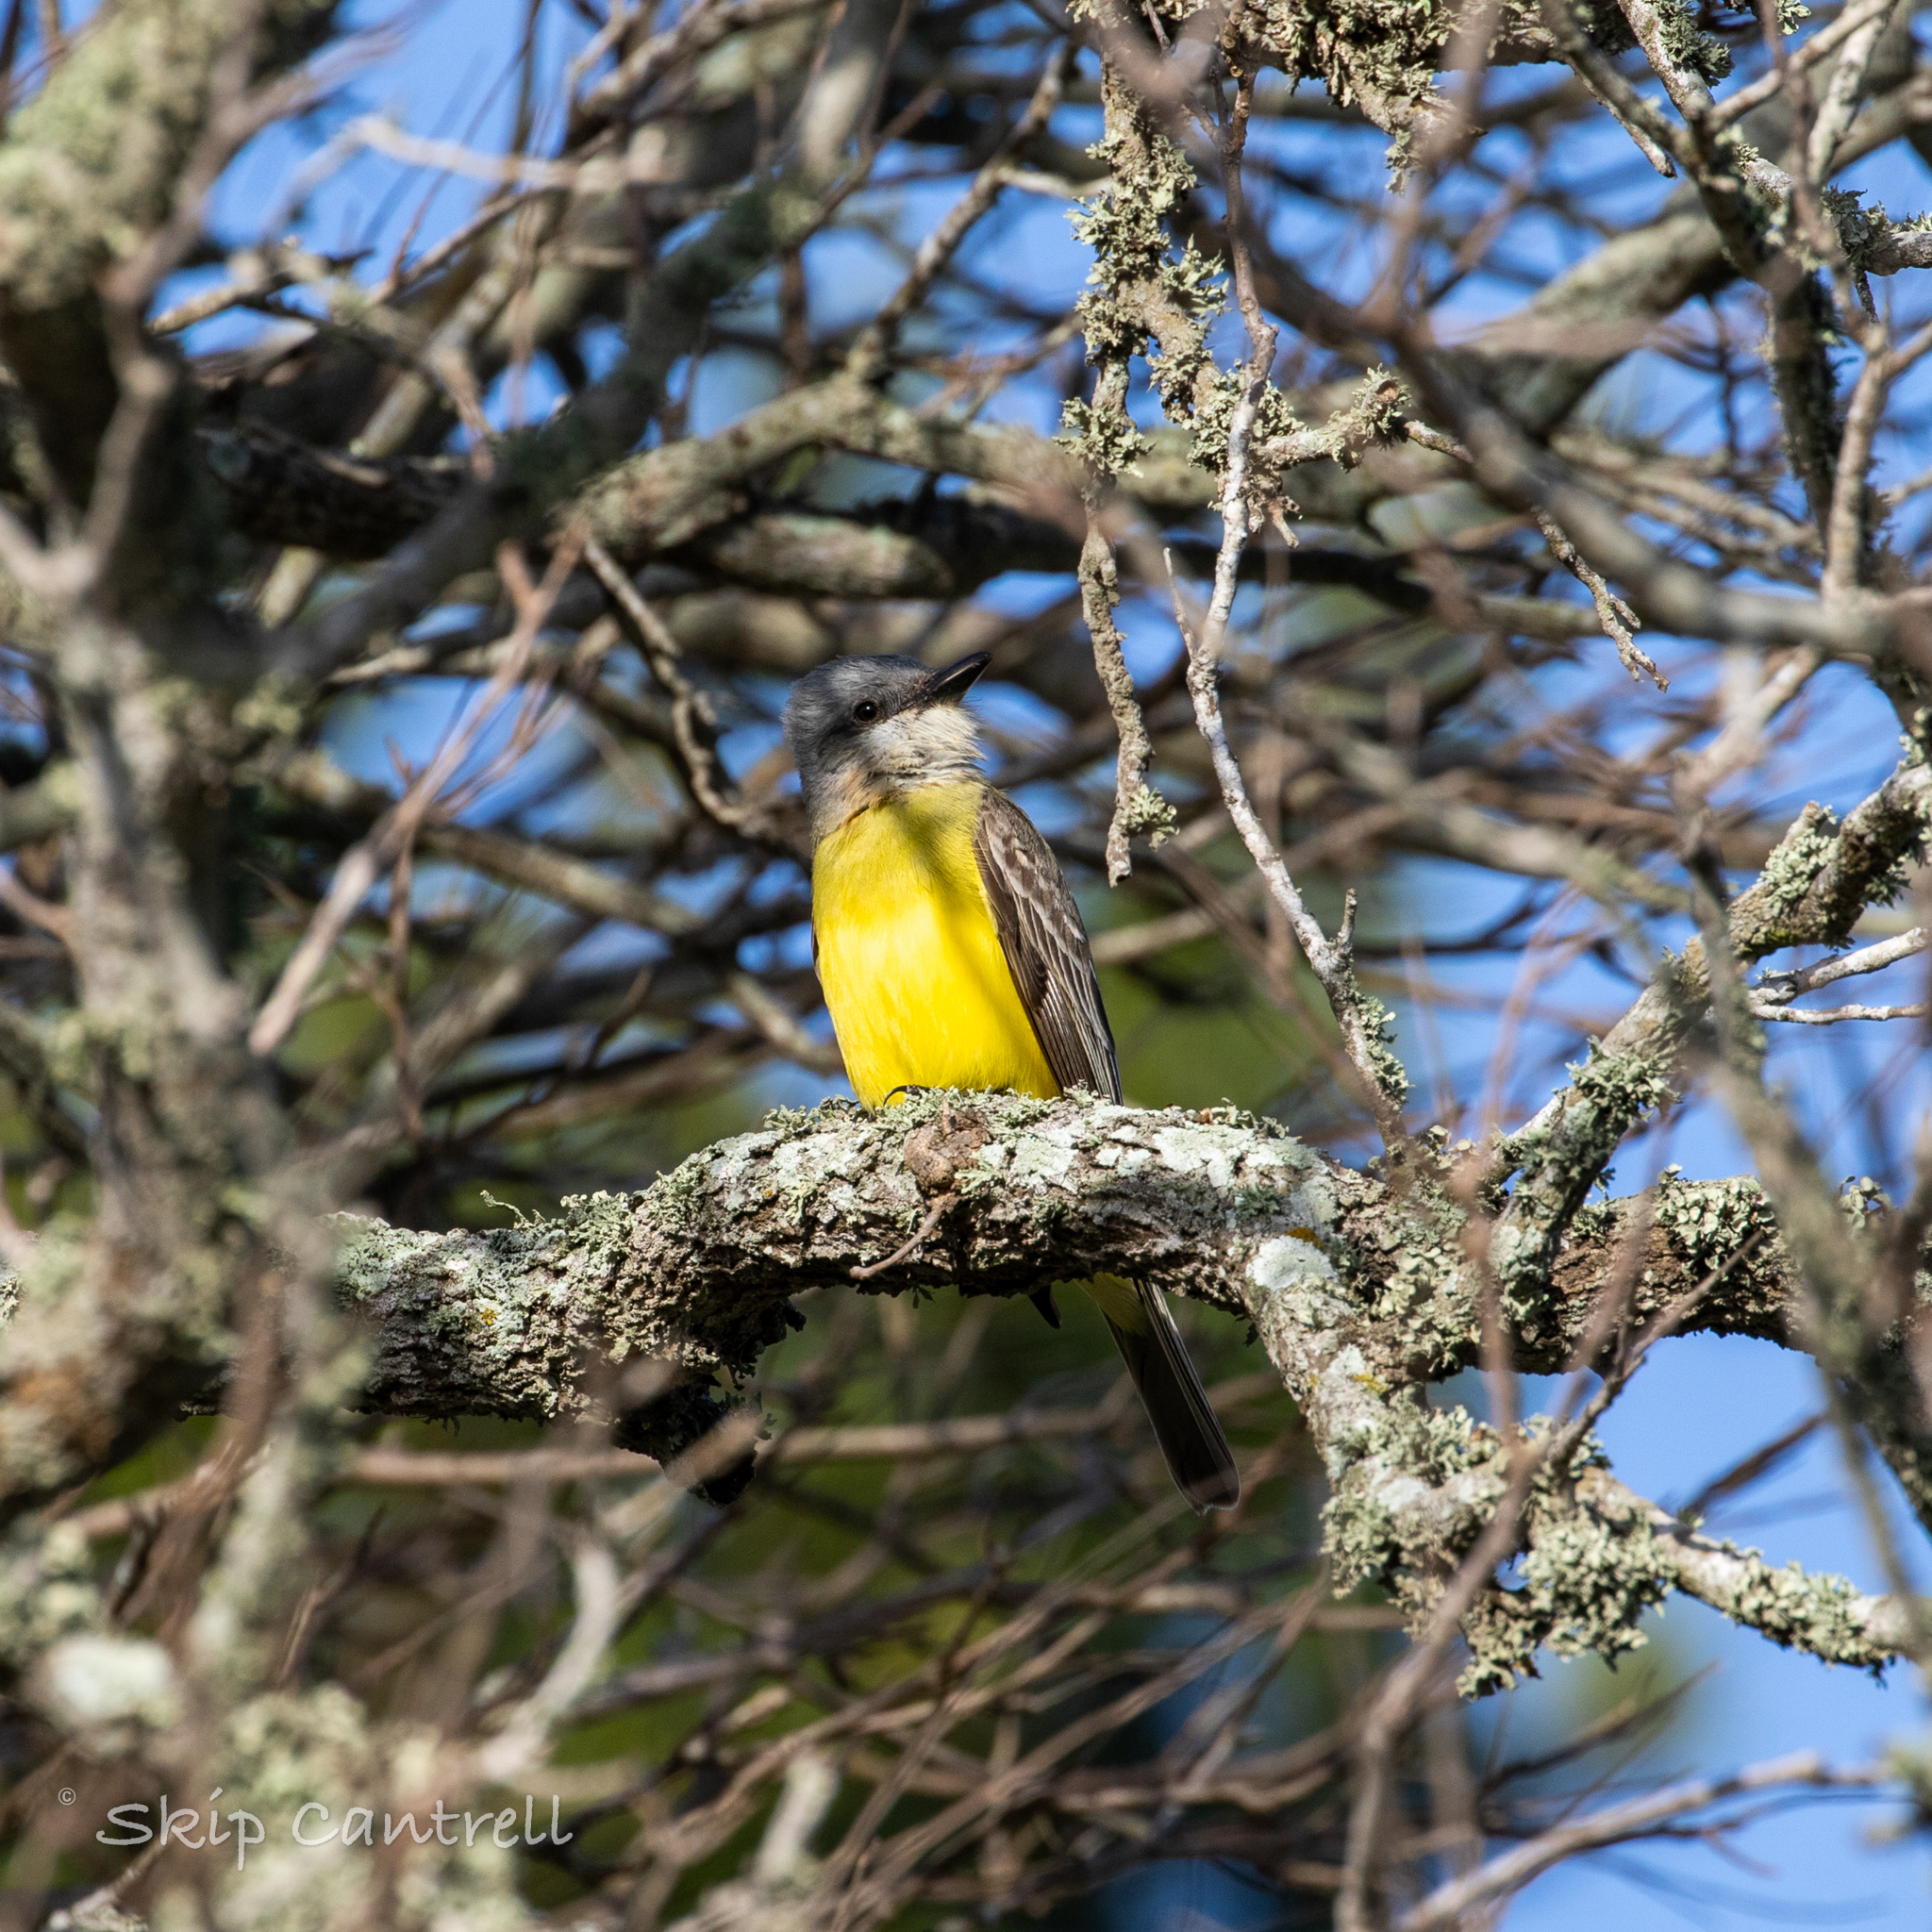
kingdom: Animalia
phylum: Chordata
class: Aves
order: Passeriformes
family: Tyrannidae
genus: Tyrannus
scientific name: Tyrannus couchii
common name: Couch's kingbird
